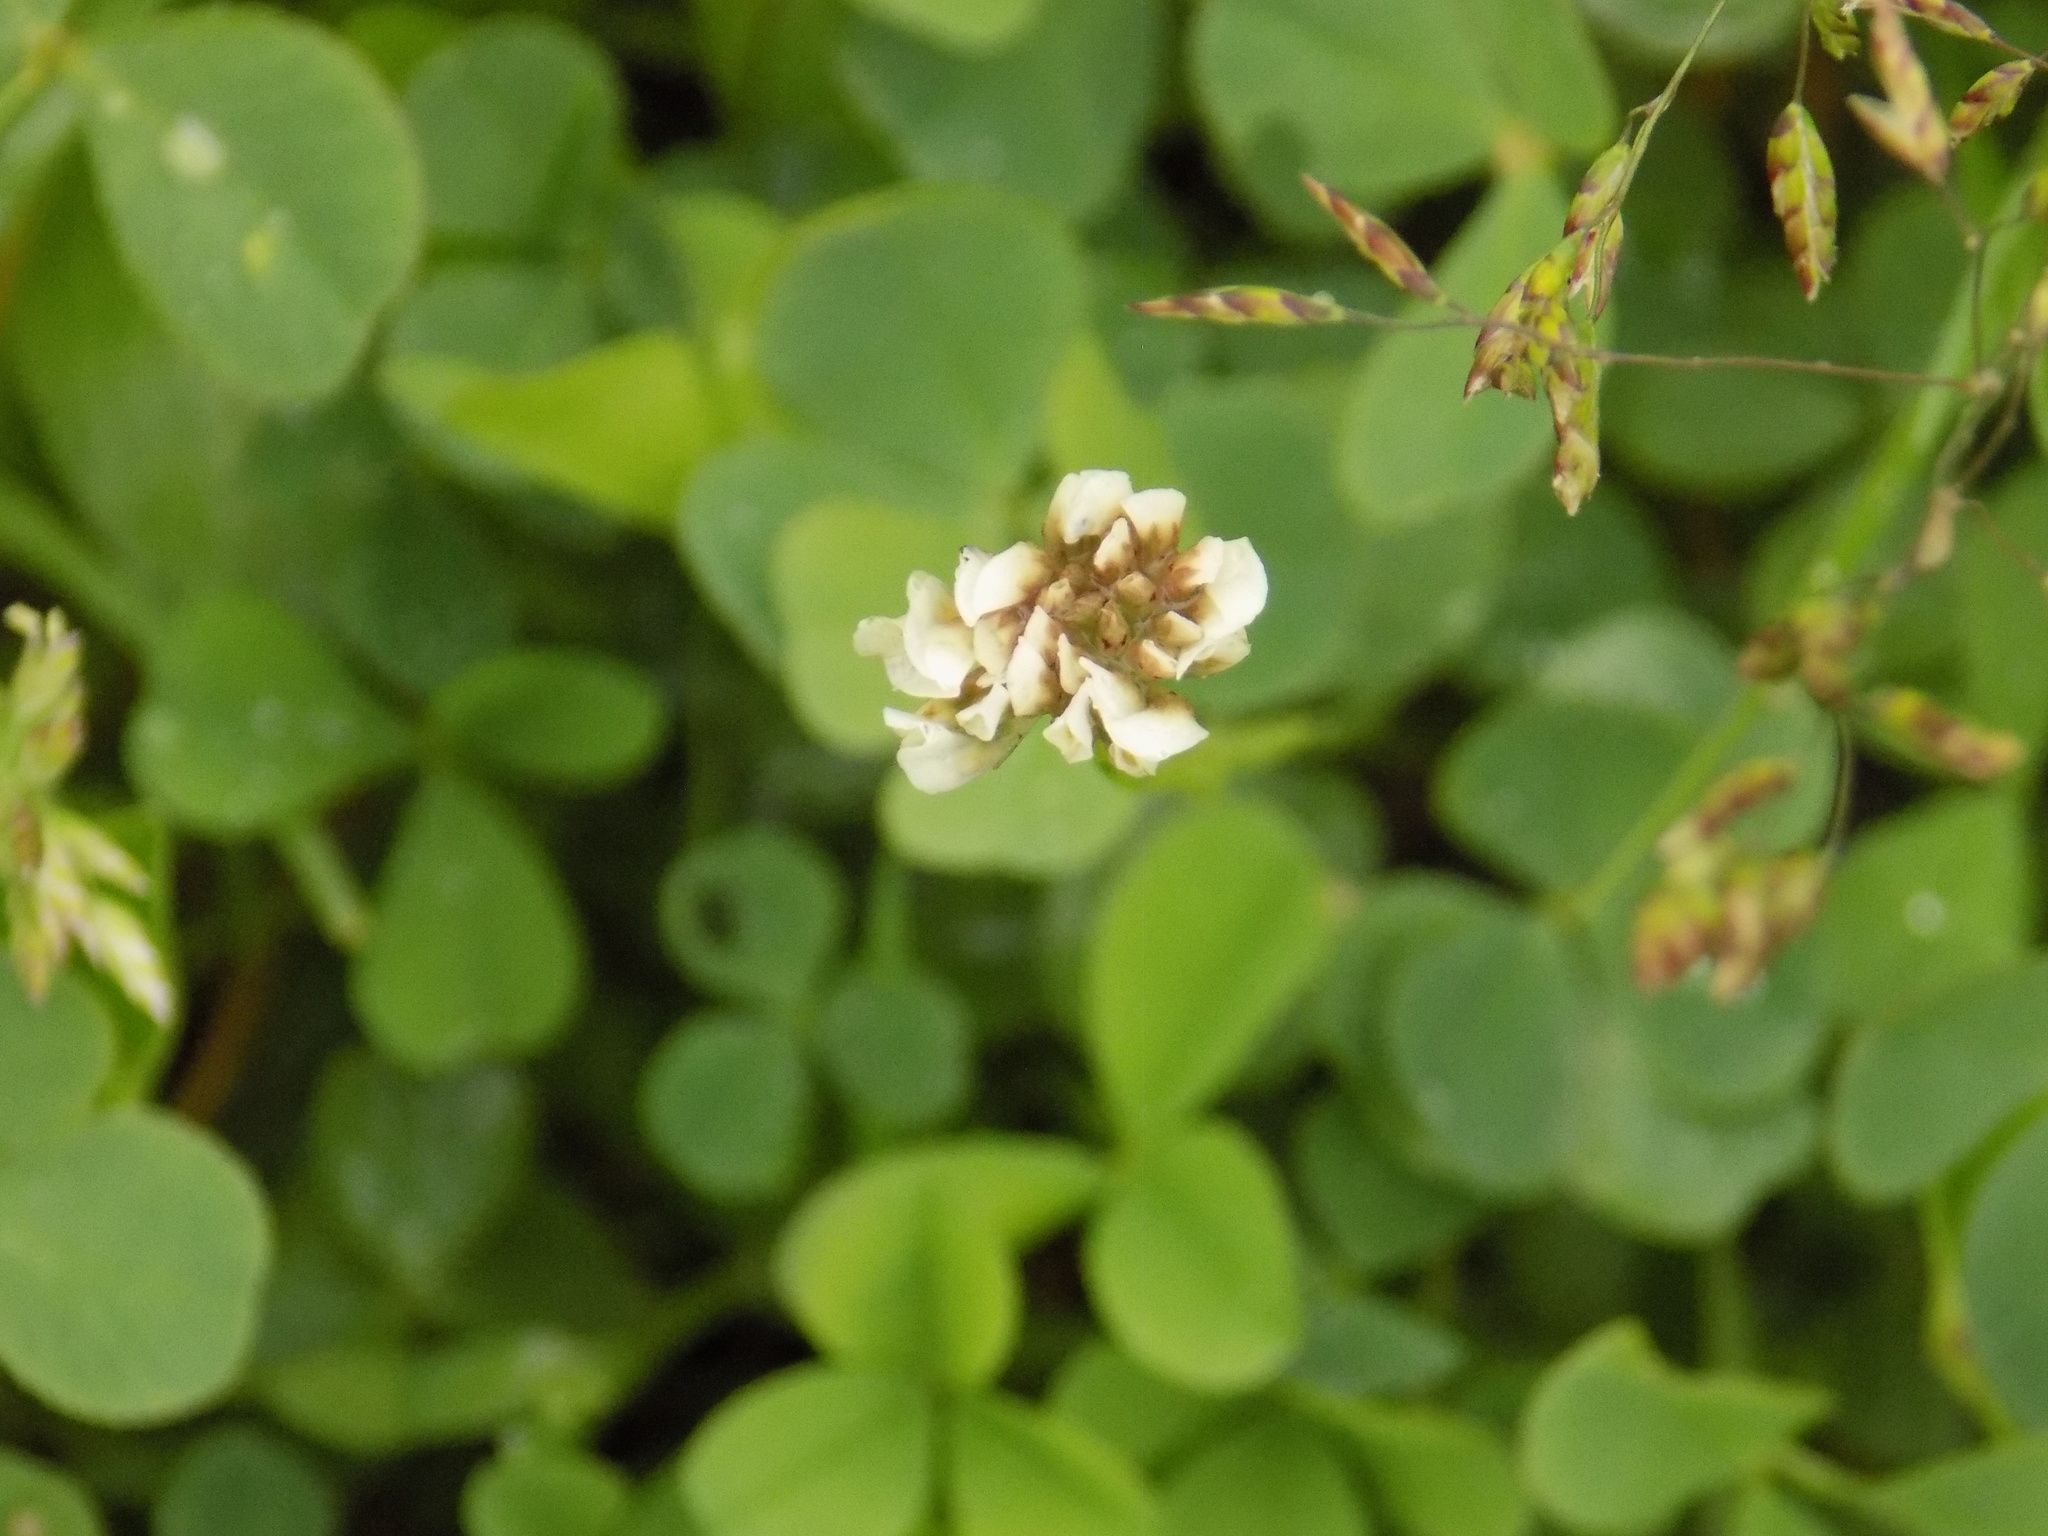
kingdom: Plantae
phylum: Tracheophyta
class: Magnoliopsida
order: Fabales
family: Fabaceae
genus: Trifolium
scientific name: Trifolium repens
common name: White clover
